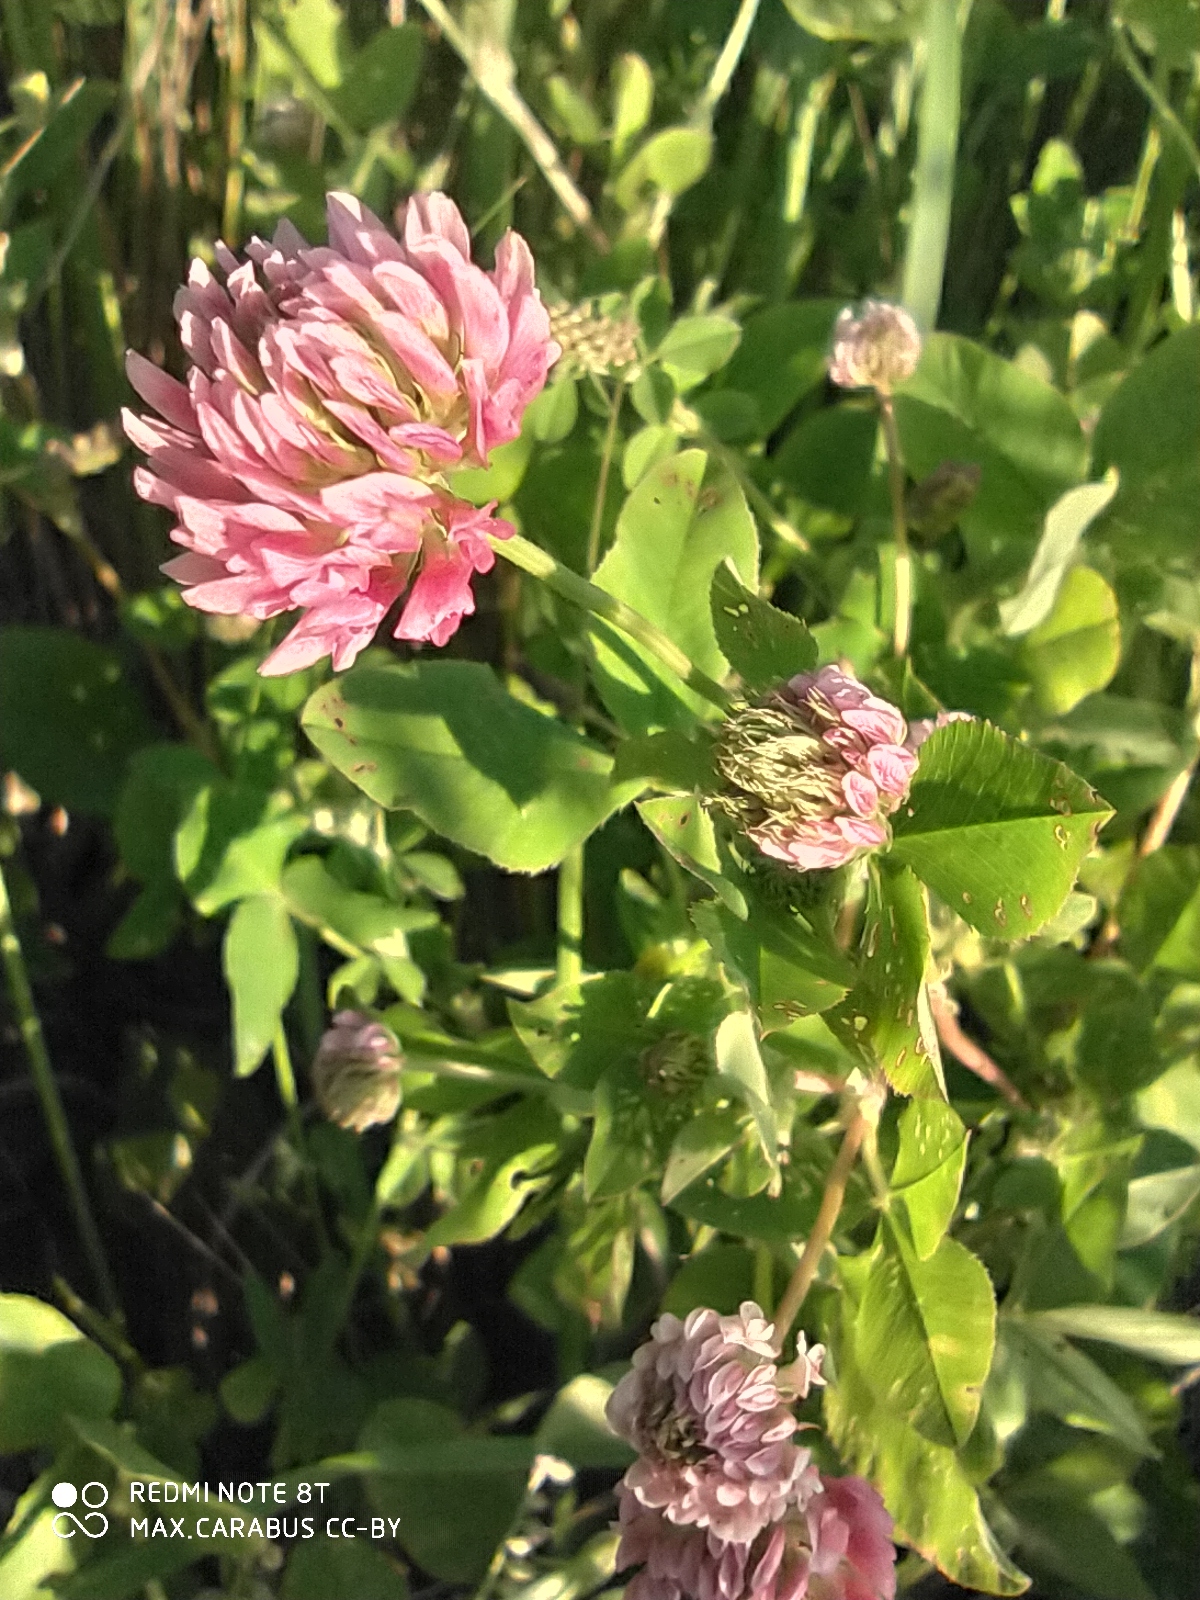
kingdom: Plantae
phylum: Tracheophyta
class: Magnoliopsida
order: Fabales
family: Fabaceae
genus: Trifolium
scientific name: Trifolium hybridum
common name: Alsike clover
